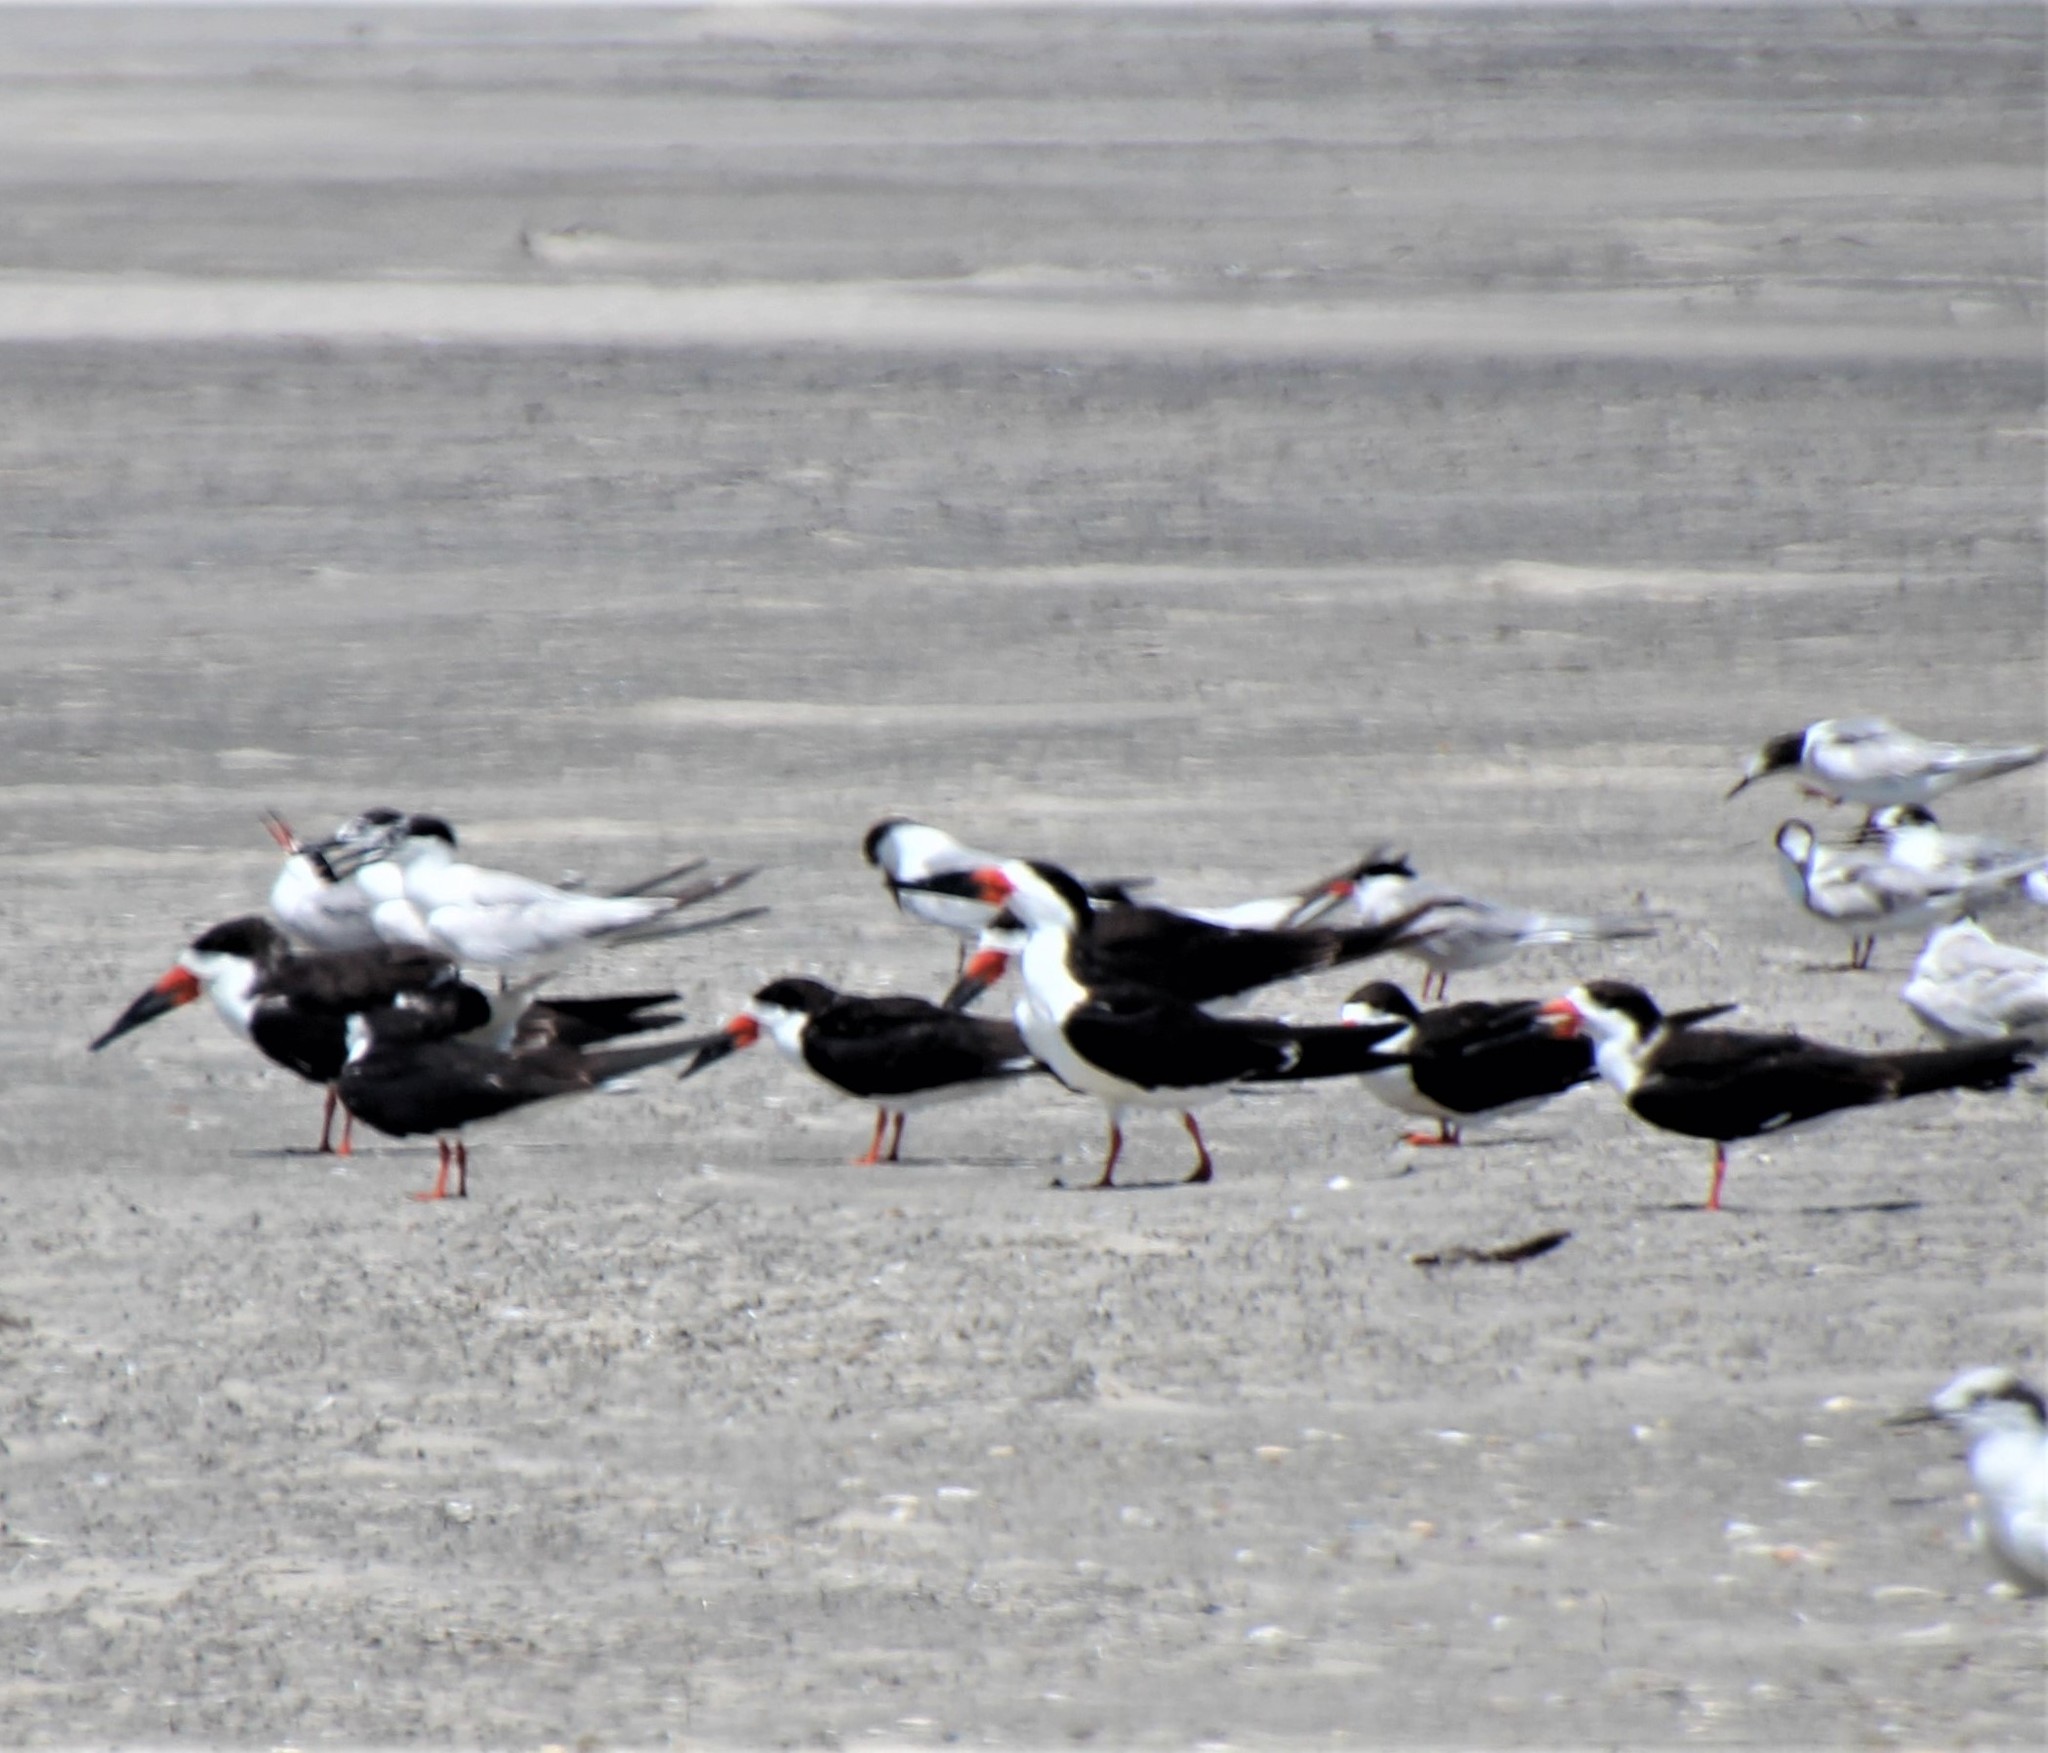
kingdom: Animalia
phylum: Chordata
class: Aves
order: Charadriiformes
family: Laridae
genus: Rynchops
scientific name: Rynchops niger
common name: Black skimmer
